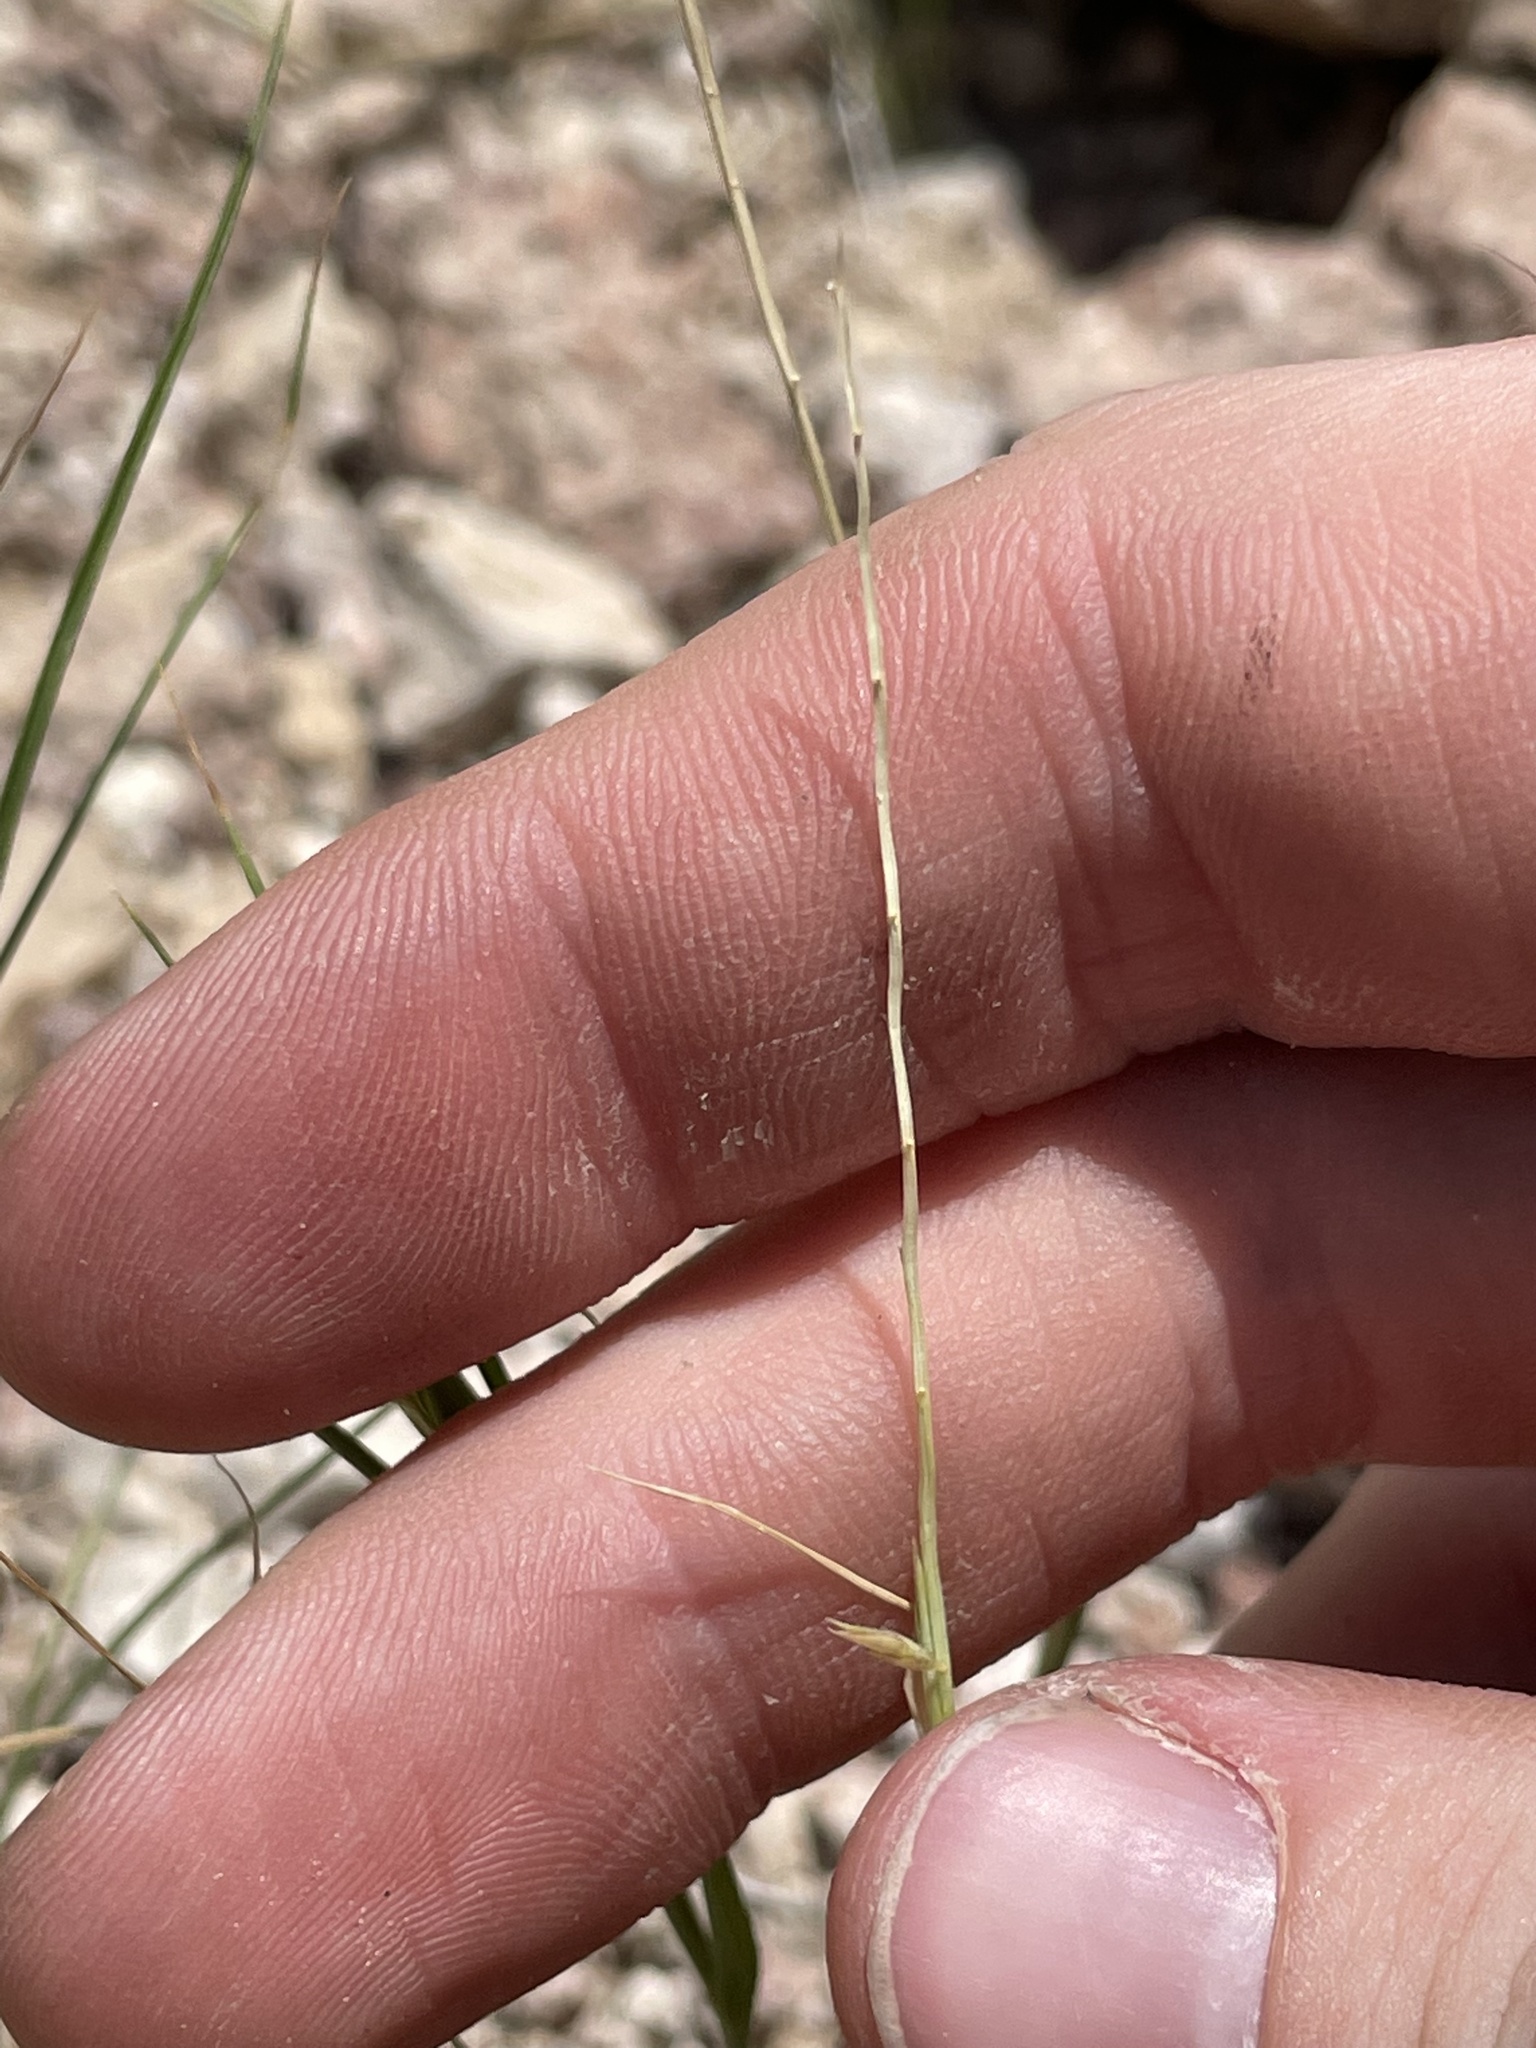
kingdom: Plantae
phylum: Tracheophyta
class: Liliopsida
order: Poales
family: Poaceae
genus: Enneapogon
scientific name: Enneapogon desvauxii
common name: Feather pappus grass
